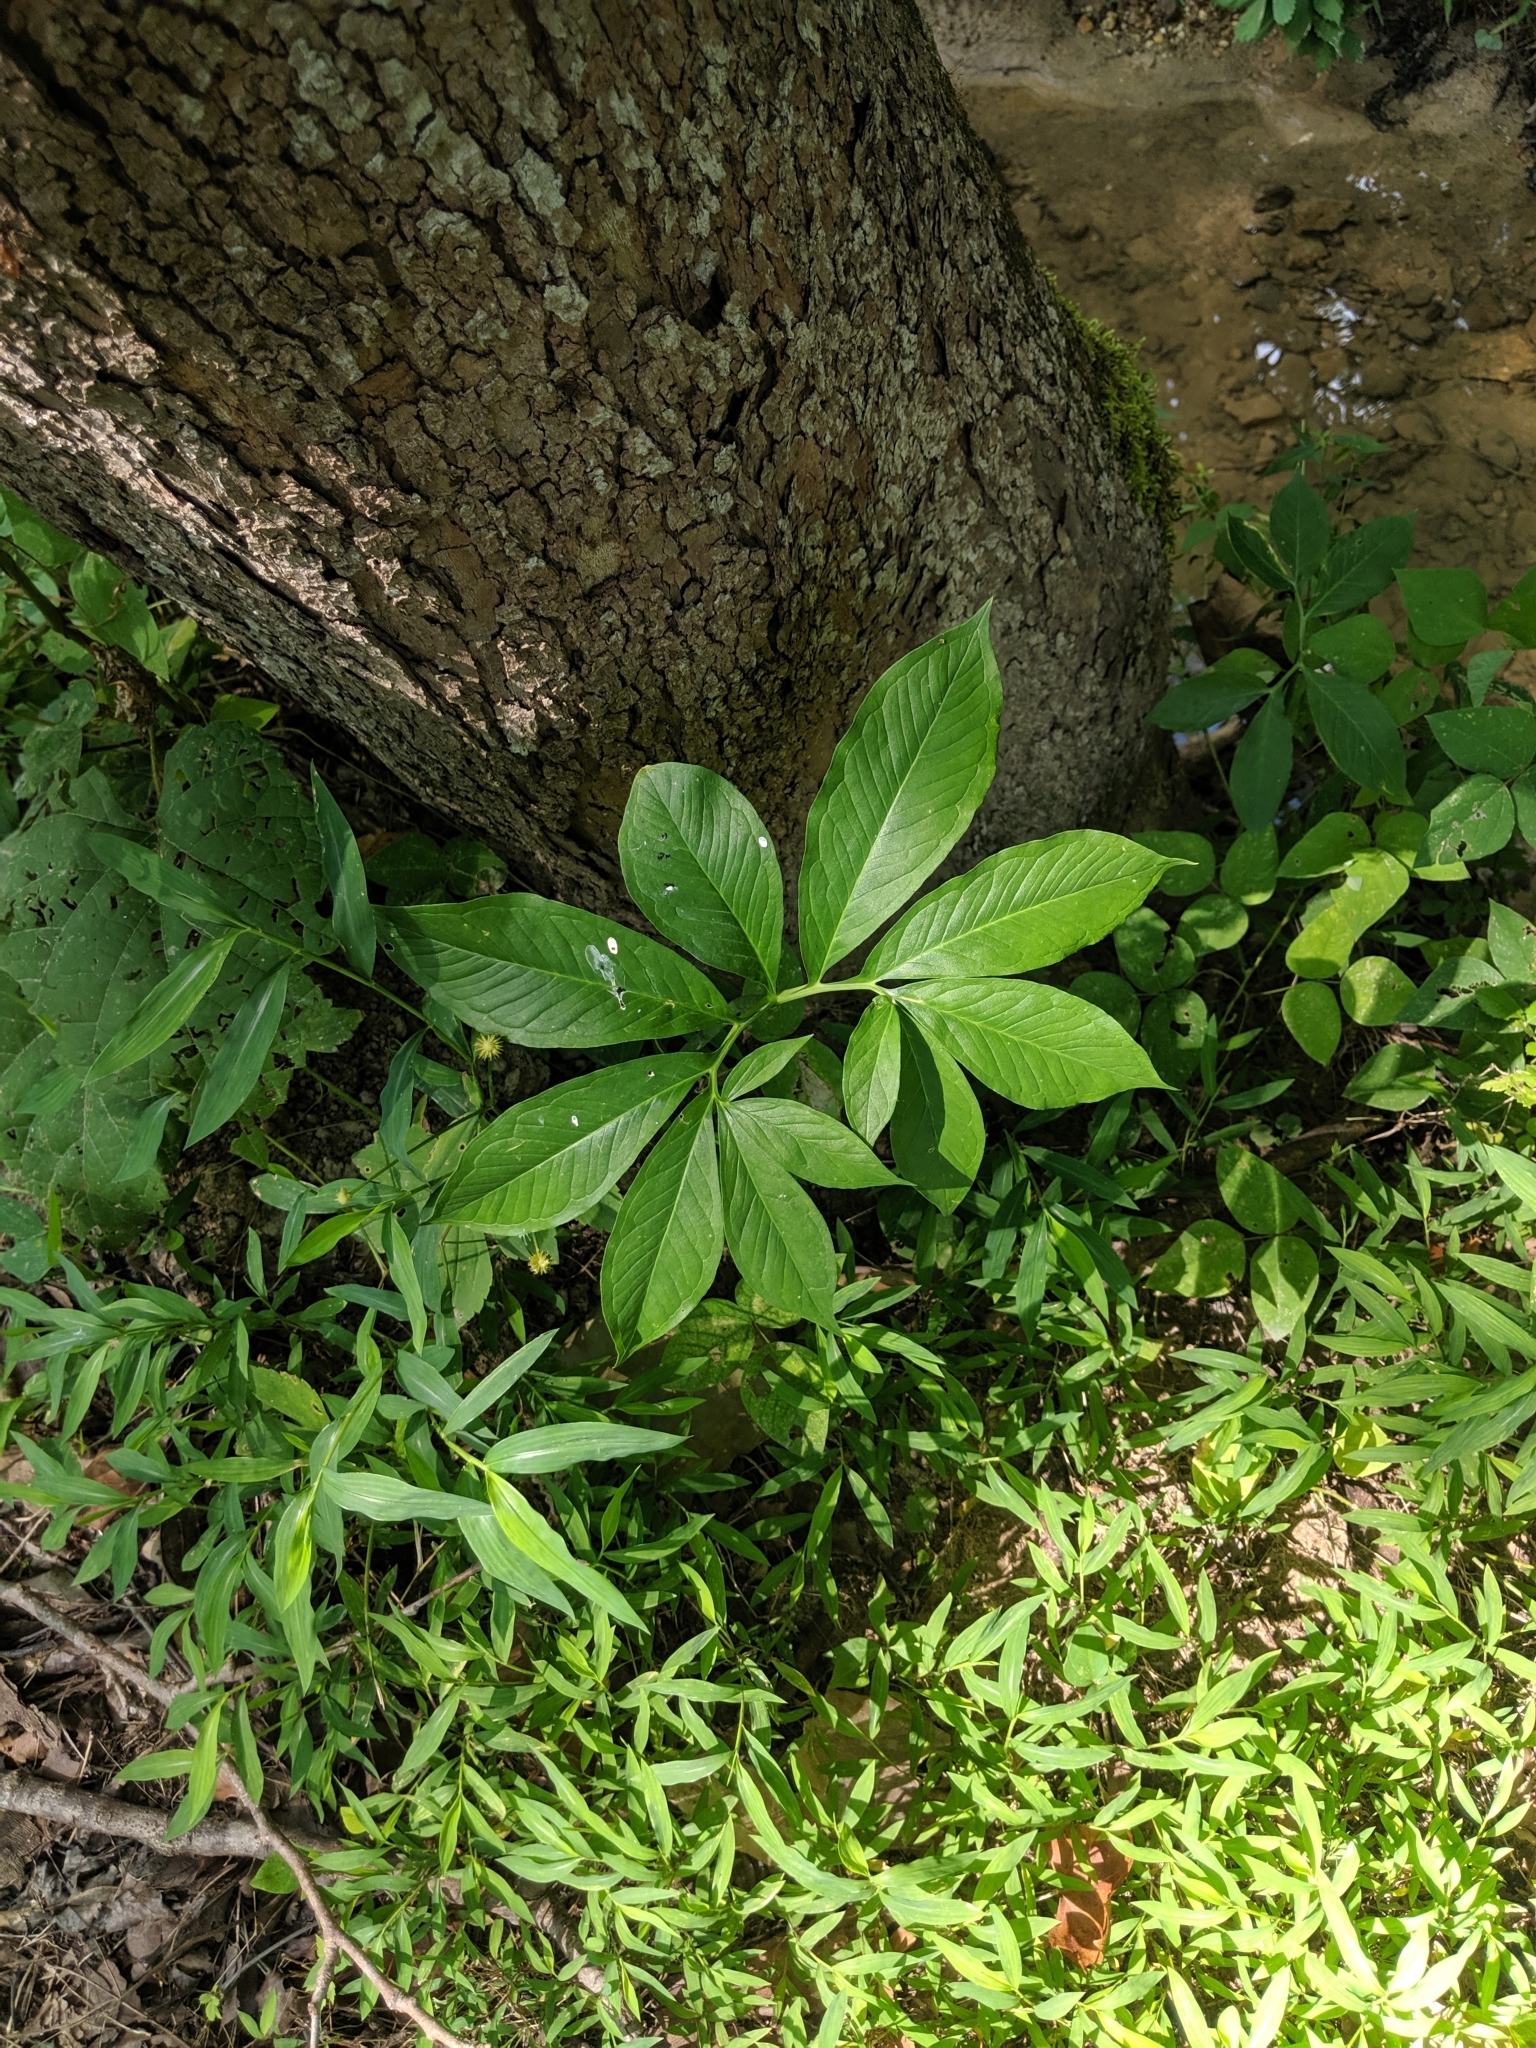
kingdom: Plantae
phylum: Tracheophyta
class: Liliopsida
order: Alismatales
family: Araceae
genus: Arisaema
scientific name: Arisaema dracontium
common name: Dragon-arum
